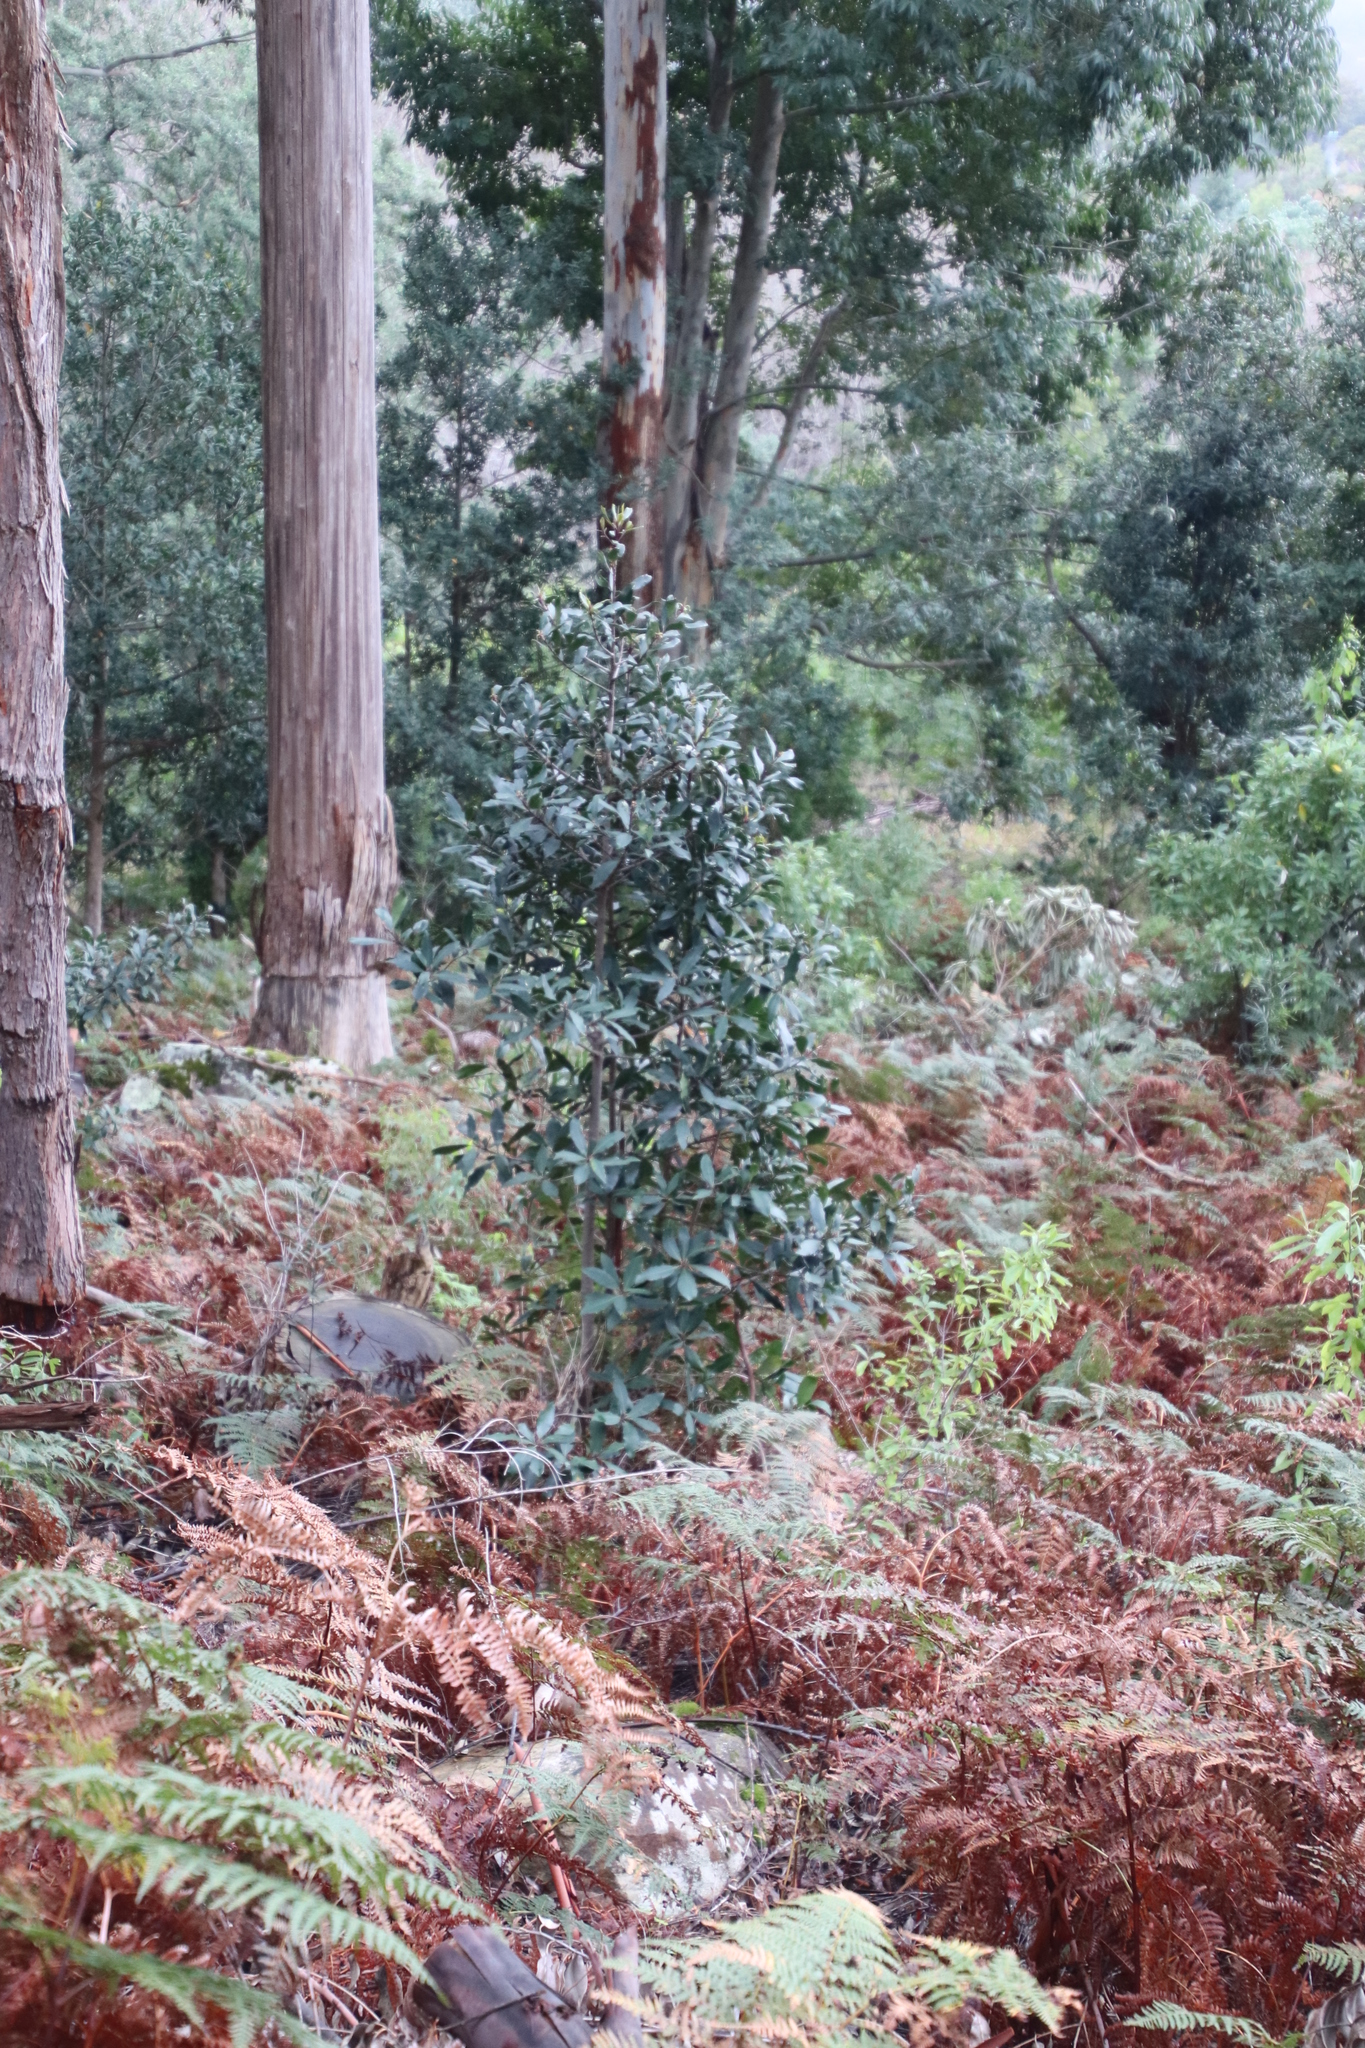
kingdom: Plantae
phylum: Tracheophyta
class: Magnoliopsida
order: Ericales
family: Primulaceae
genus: Myrsine
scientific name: Myrsine melanophloeos
